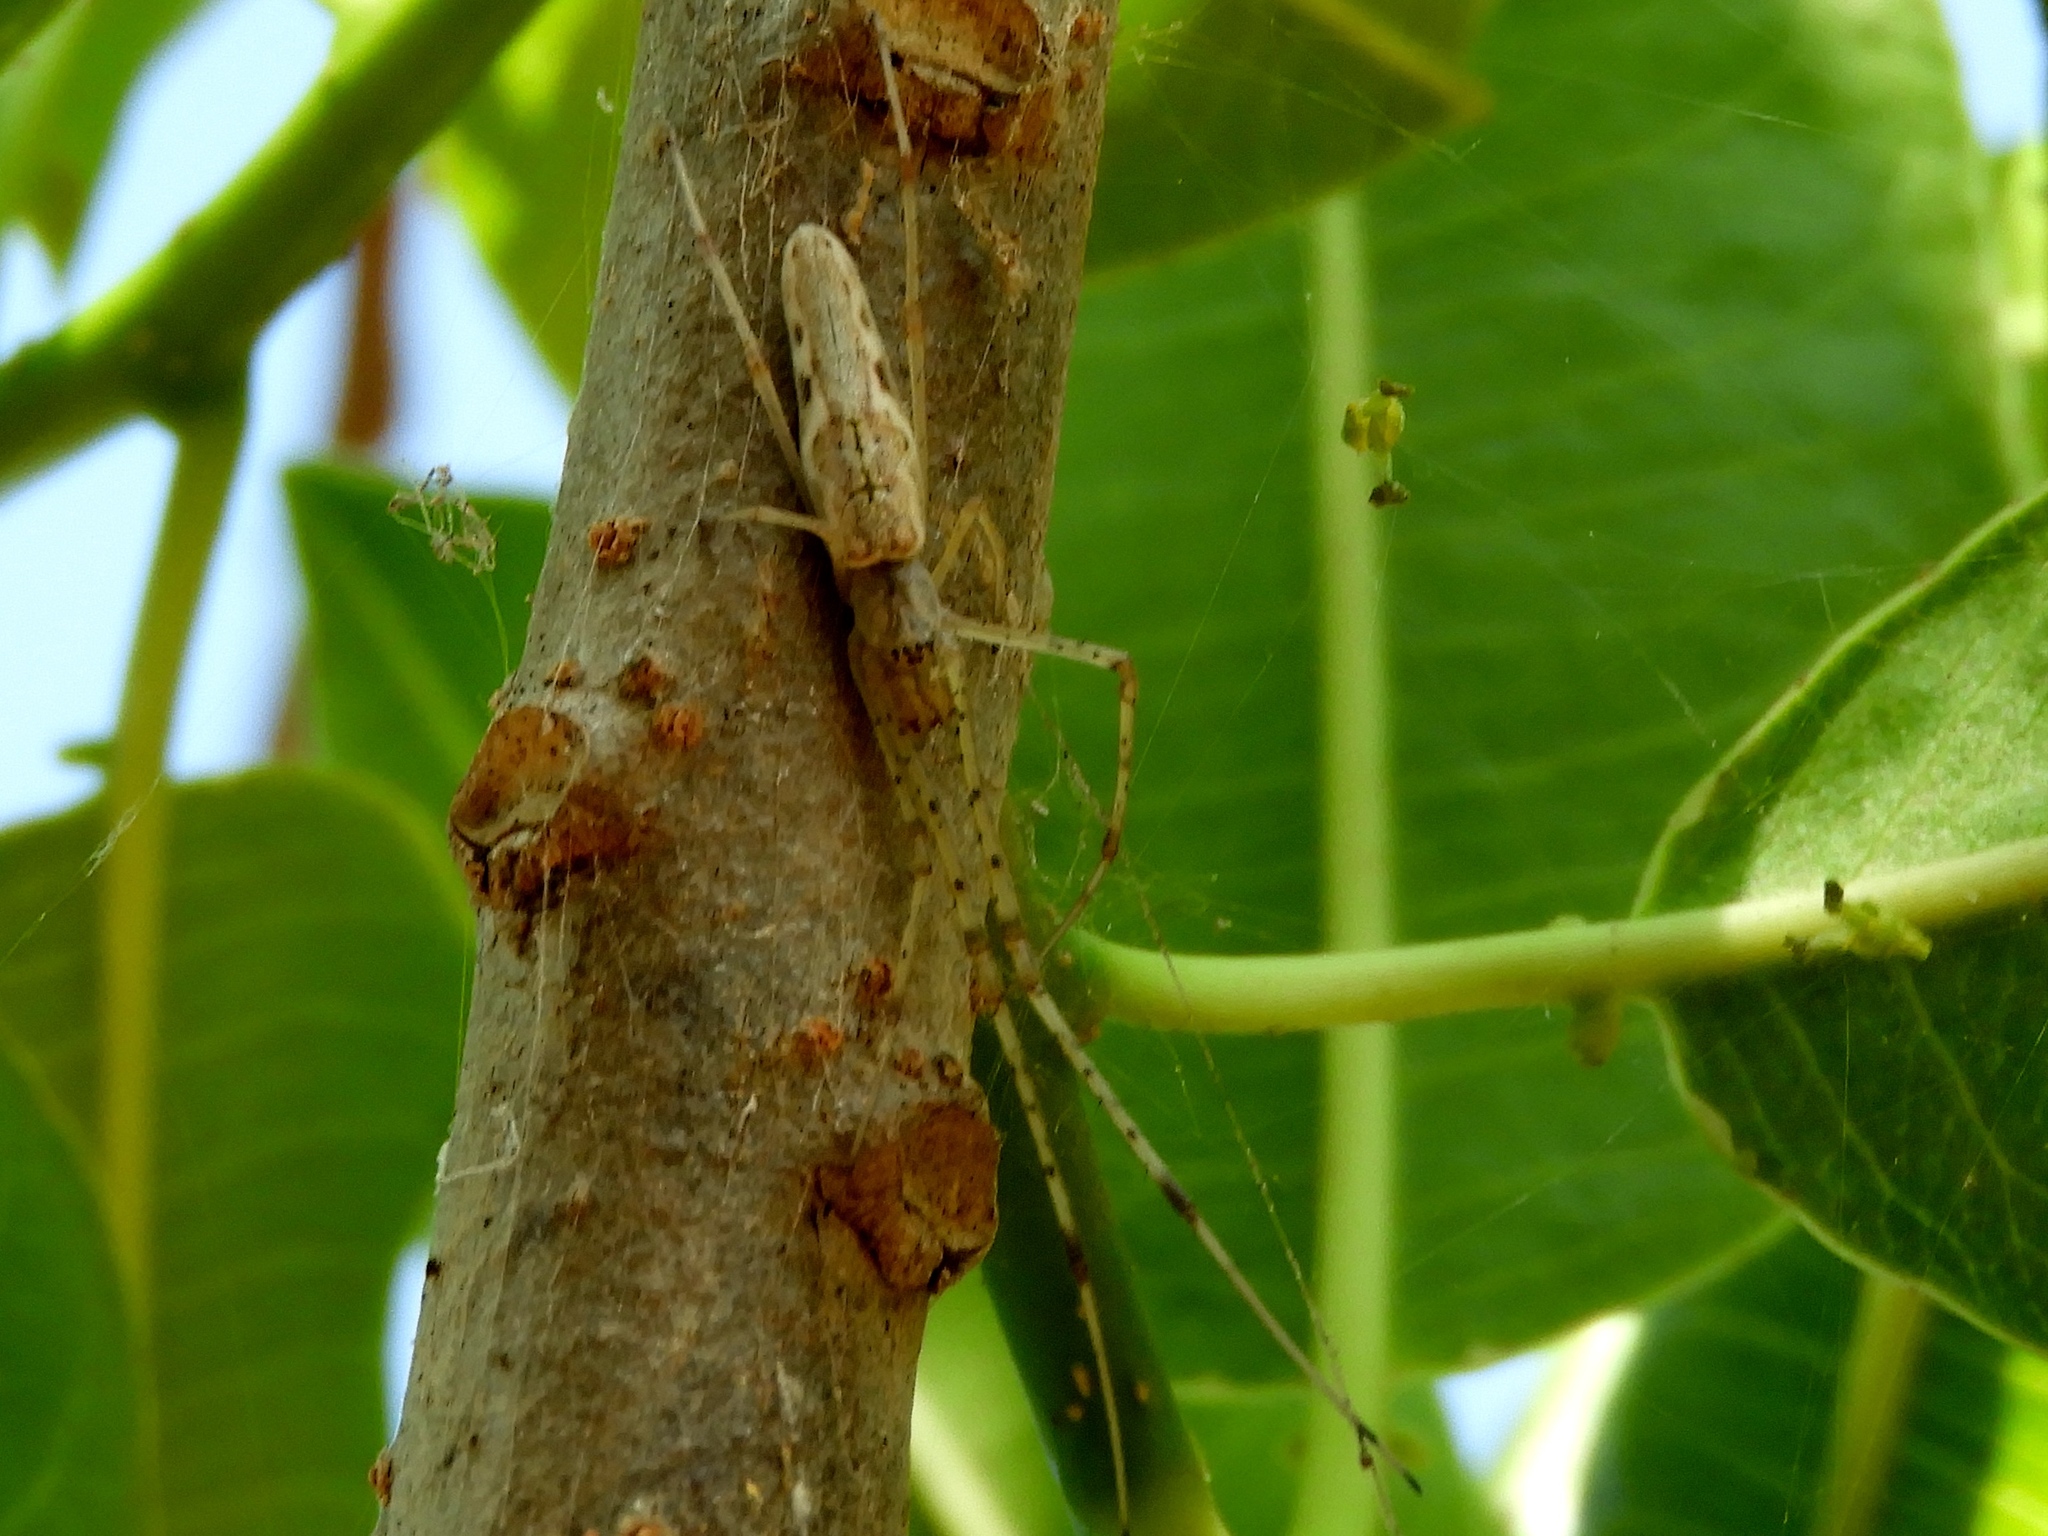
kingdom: Animalia
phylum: Arthropoda
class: Arachnida
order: Araneae
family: Tetragnathidae
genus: Tetragnatha
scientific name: Tetragnatha
